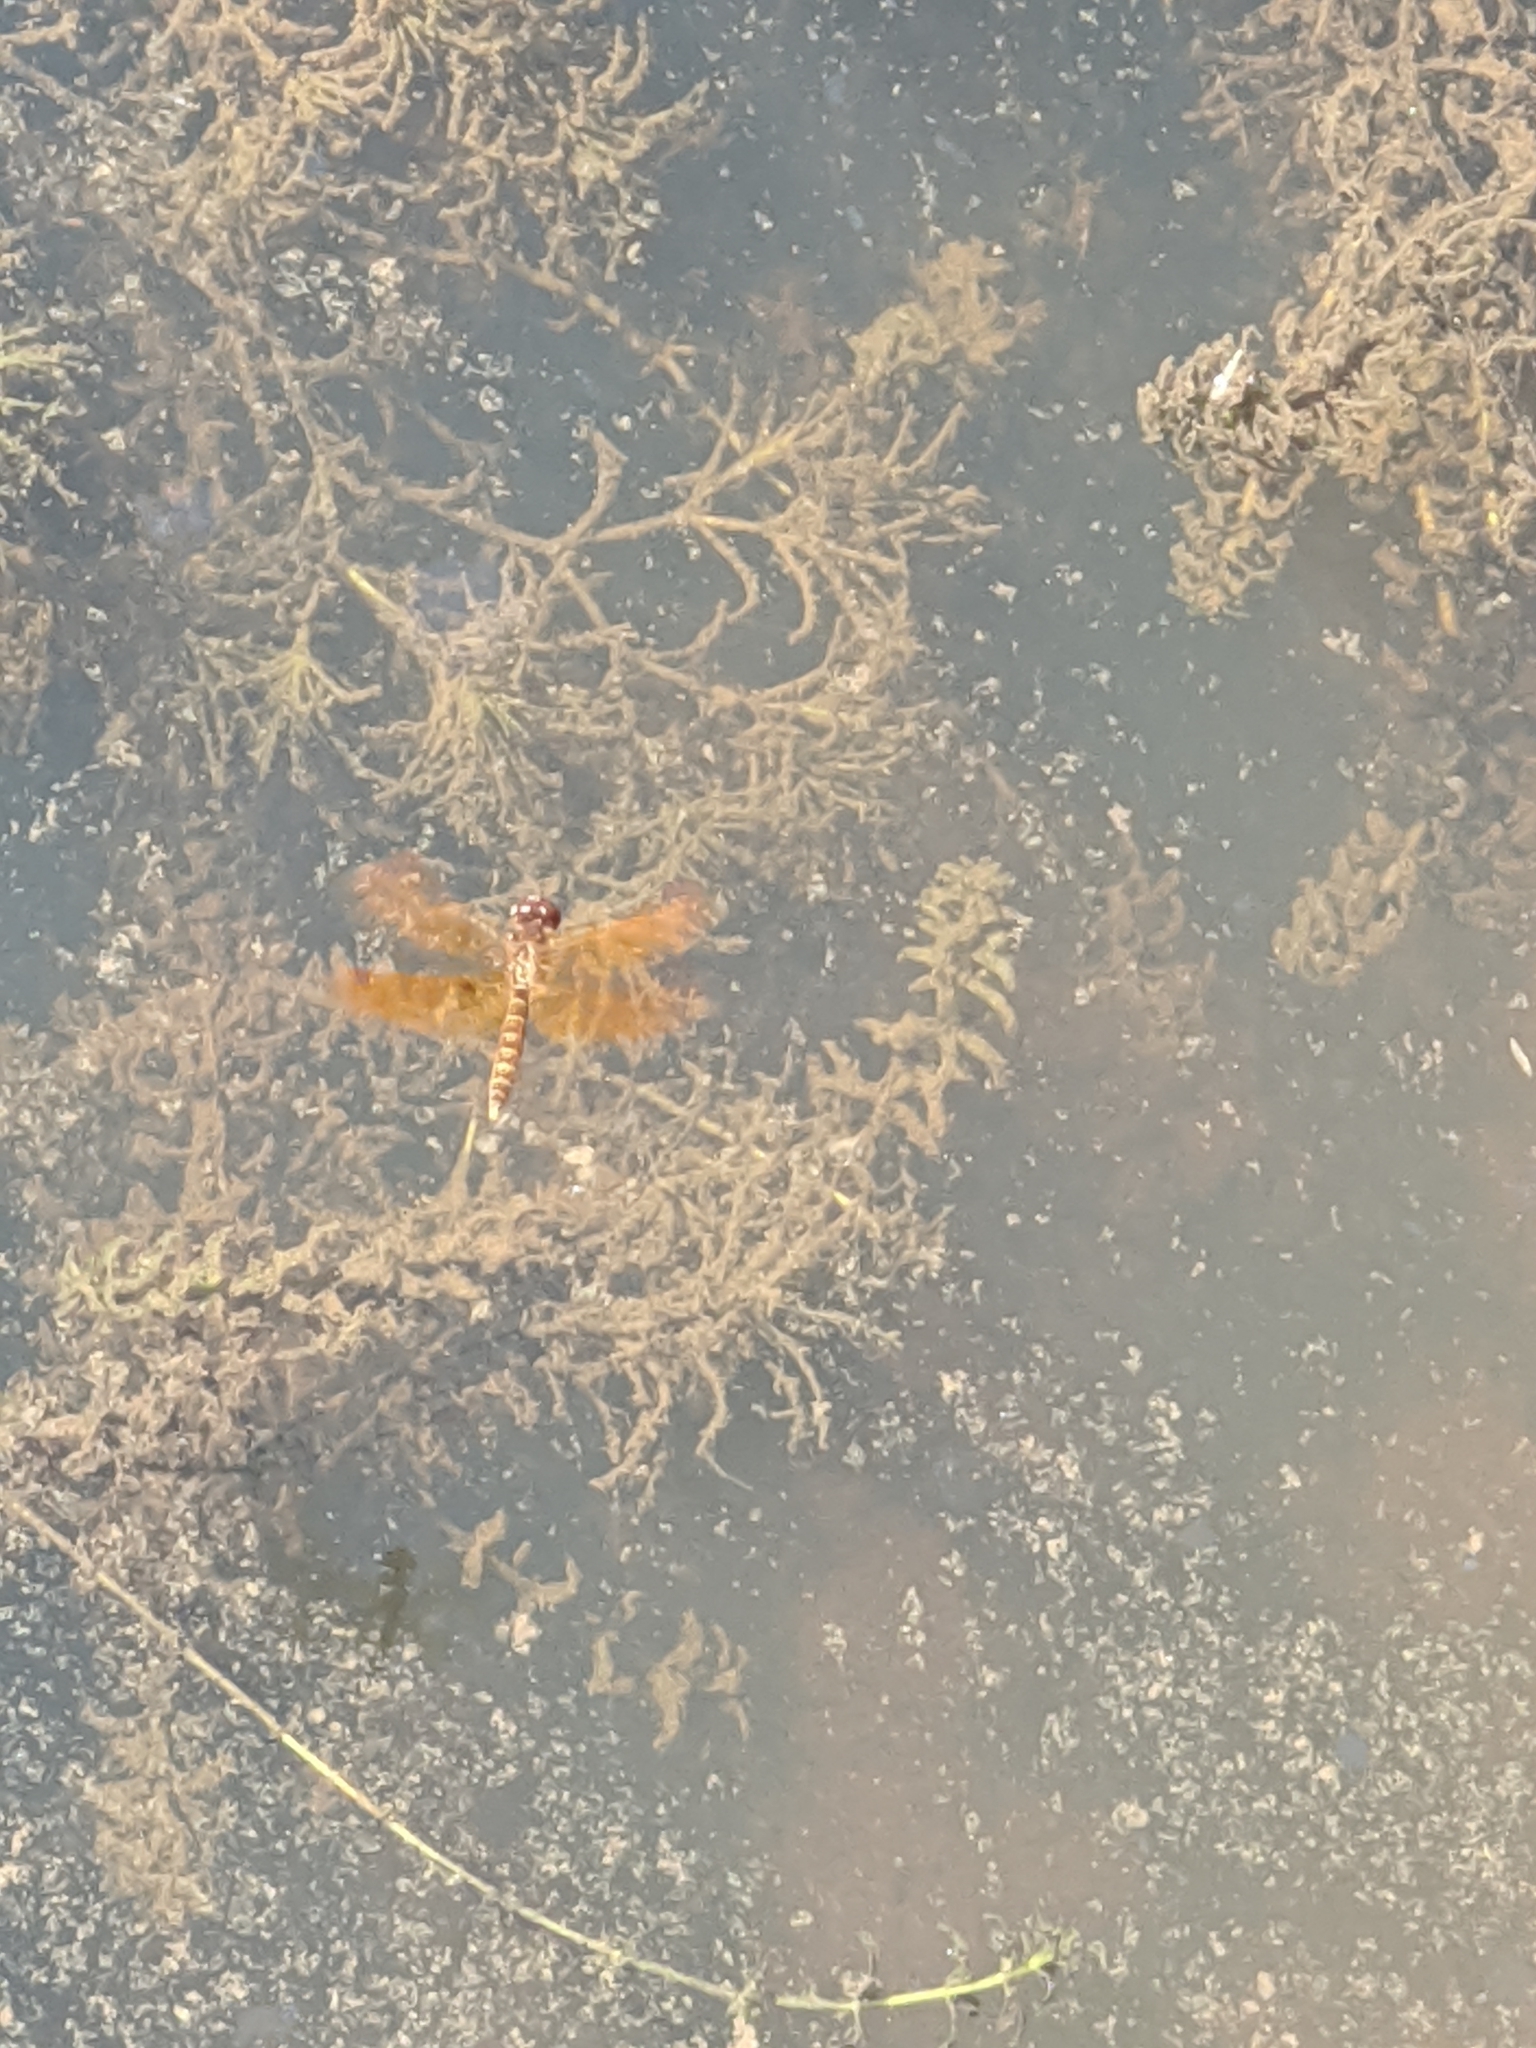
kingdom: Animalia
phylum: Arthropoda
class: Insecta
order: Odonata
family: Libellulidae
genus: Perithemis
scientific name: Perithemis tenera
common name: Eastern amberwing
